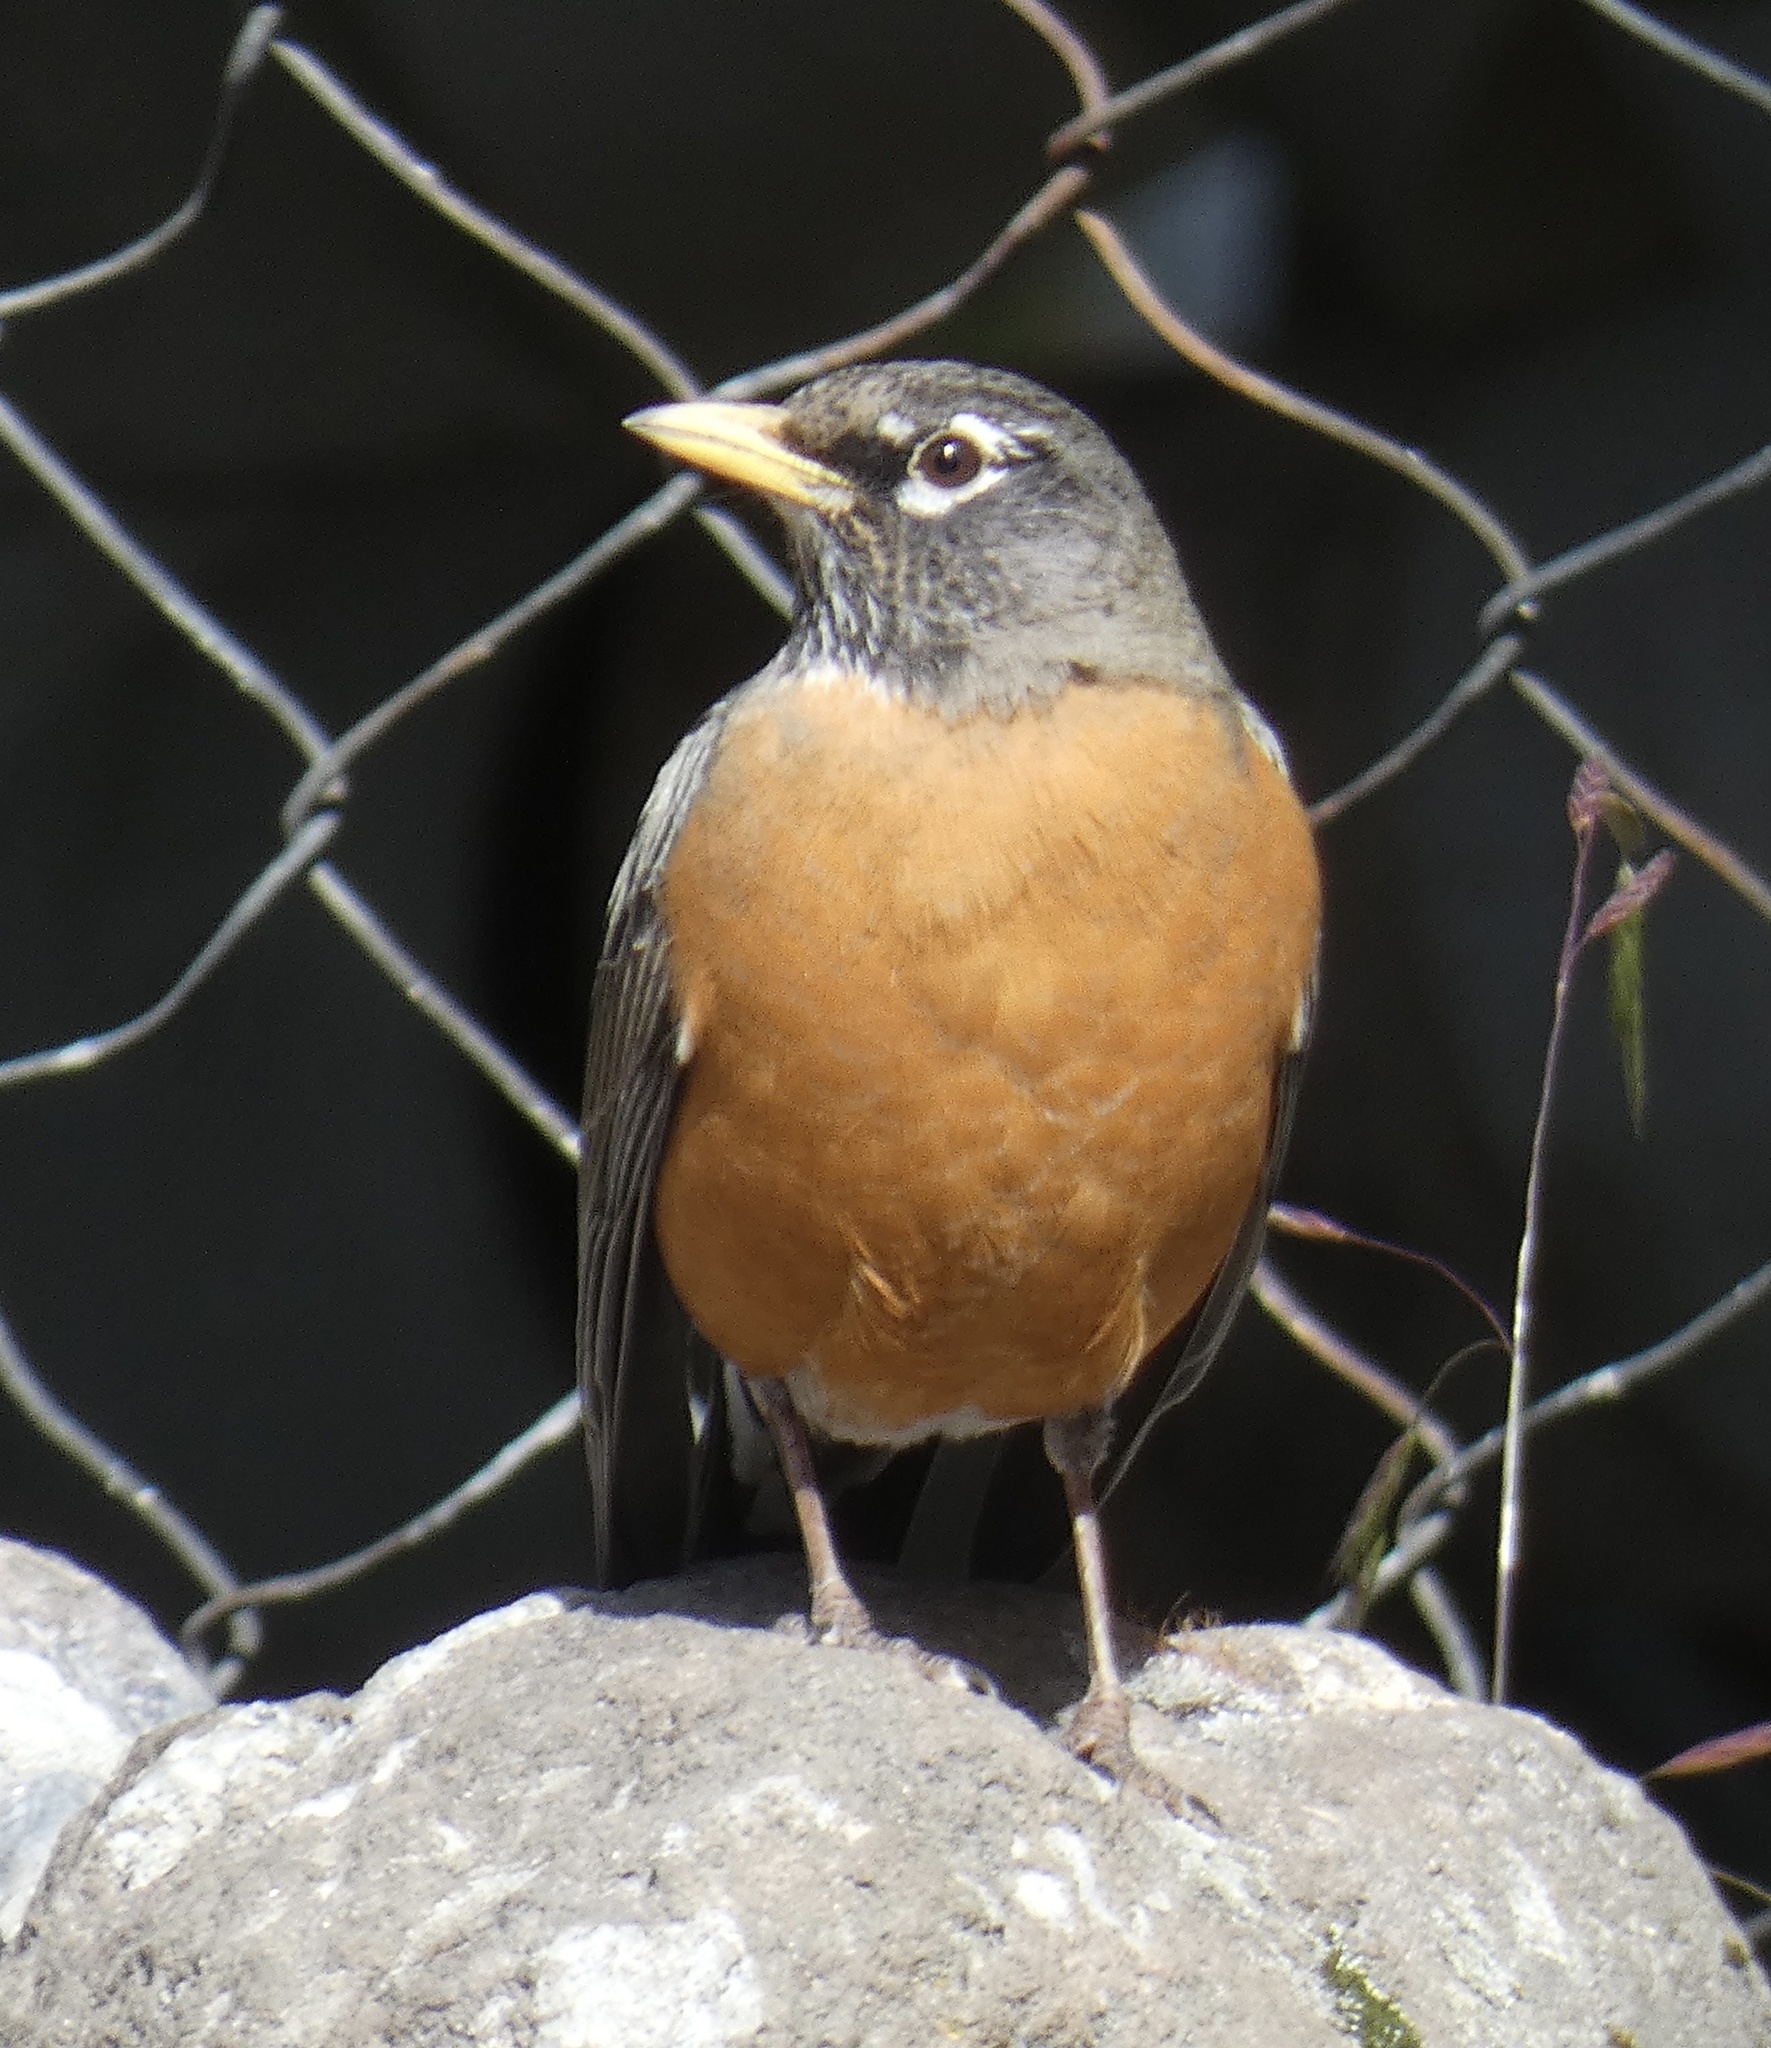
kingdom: Animalia
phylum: Chordata
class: Aves
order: Passeriformes
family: Turdidae
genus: Turdus
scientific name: Turdus migratorius
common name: American robin
